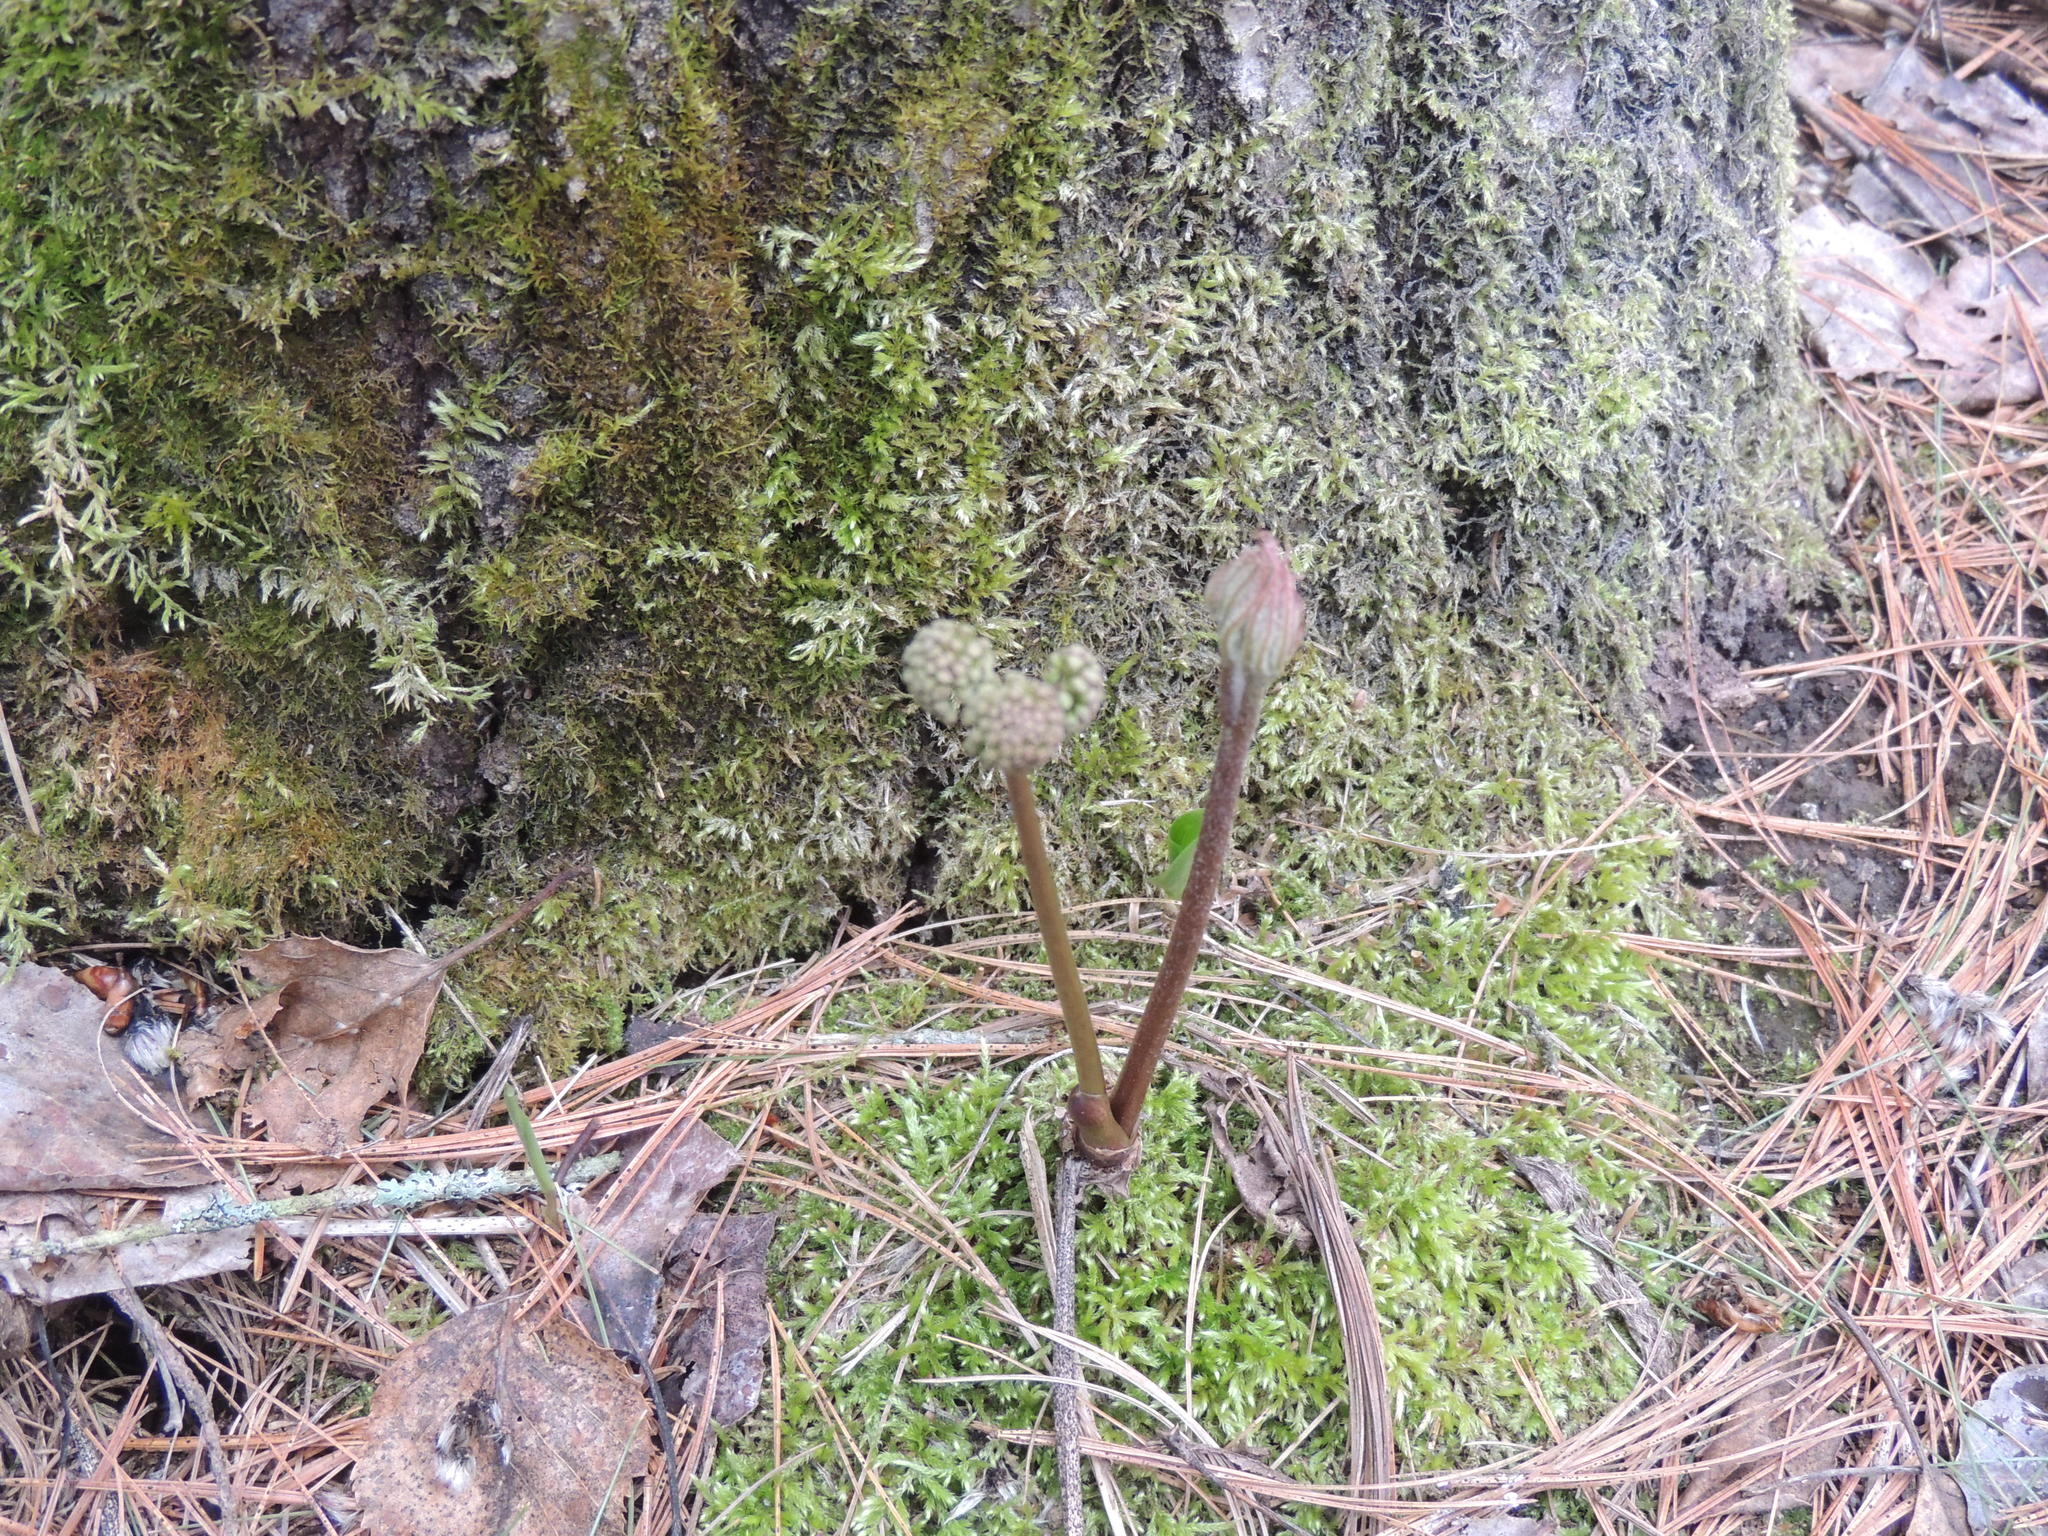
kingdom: Plantae
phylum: Tracheophyta
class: Magnoliopsida
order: Apiales
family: Araliaceae
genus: Aralia
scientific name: Aralia nudicaulis
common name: Wild sarsaparilla
